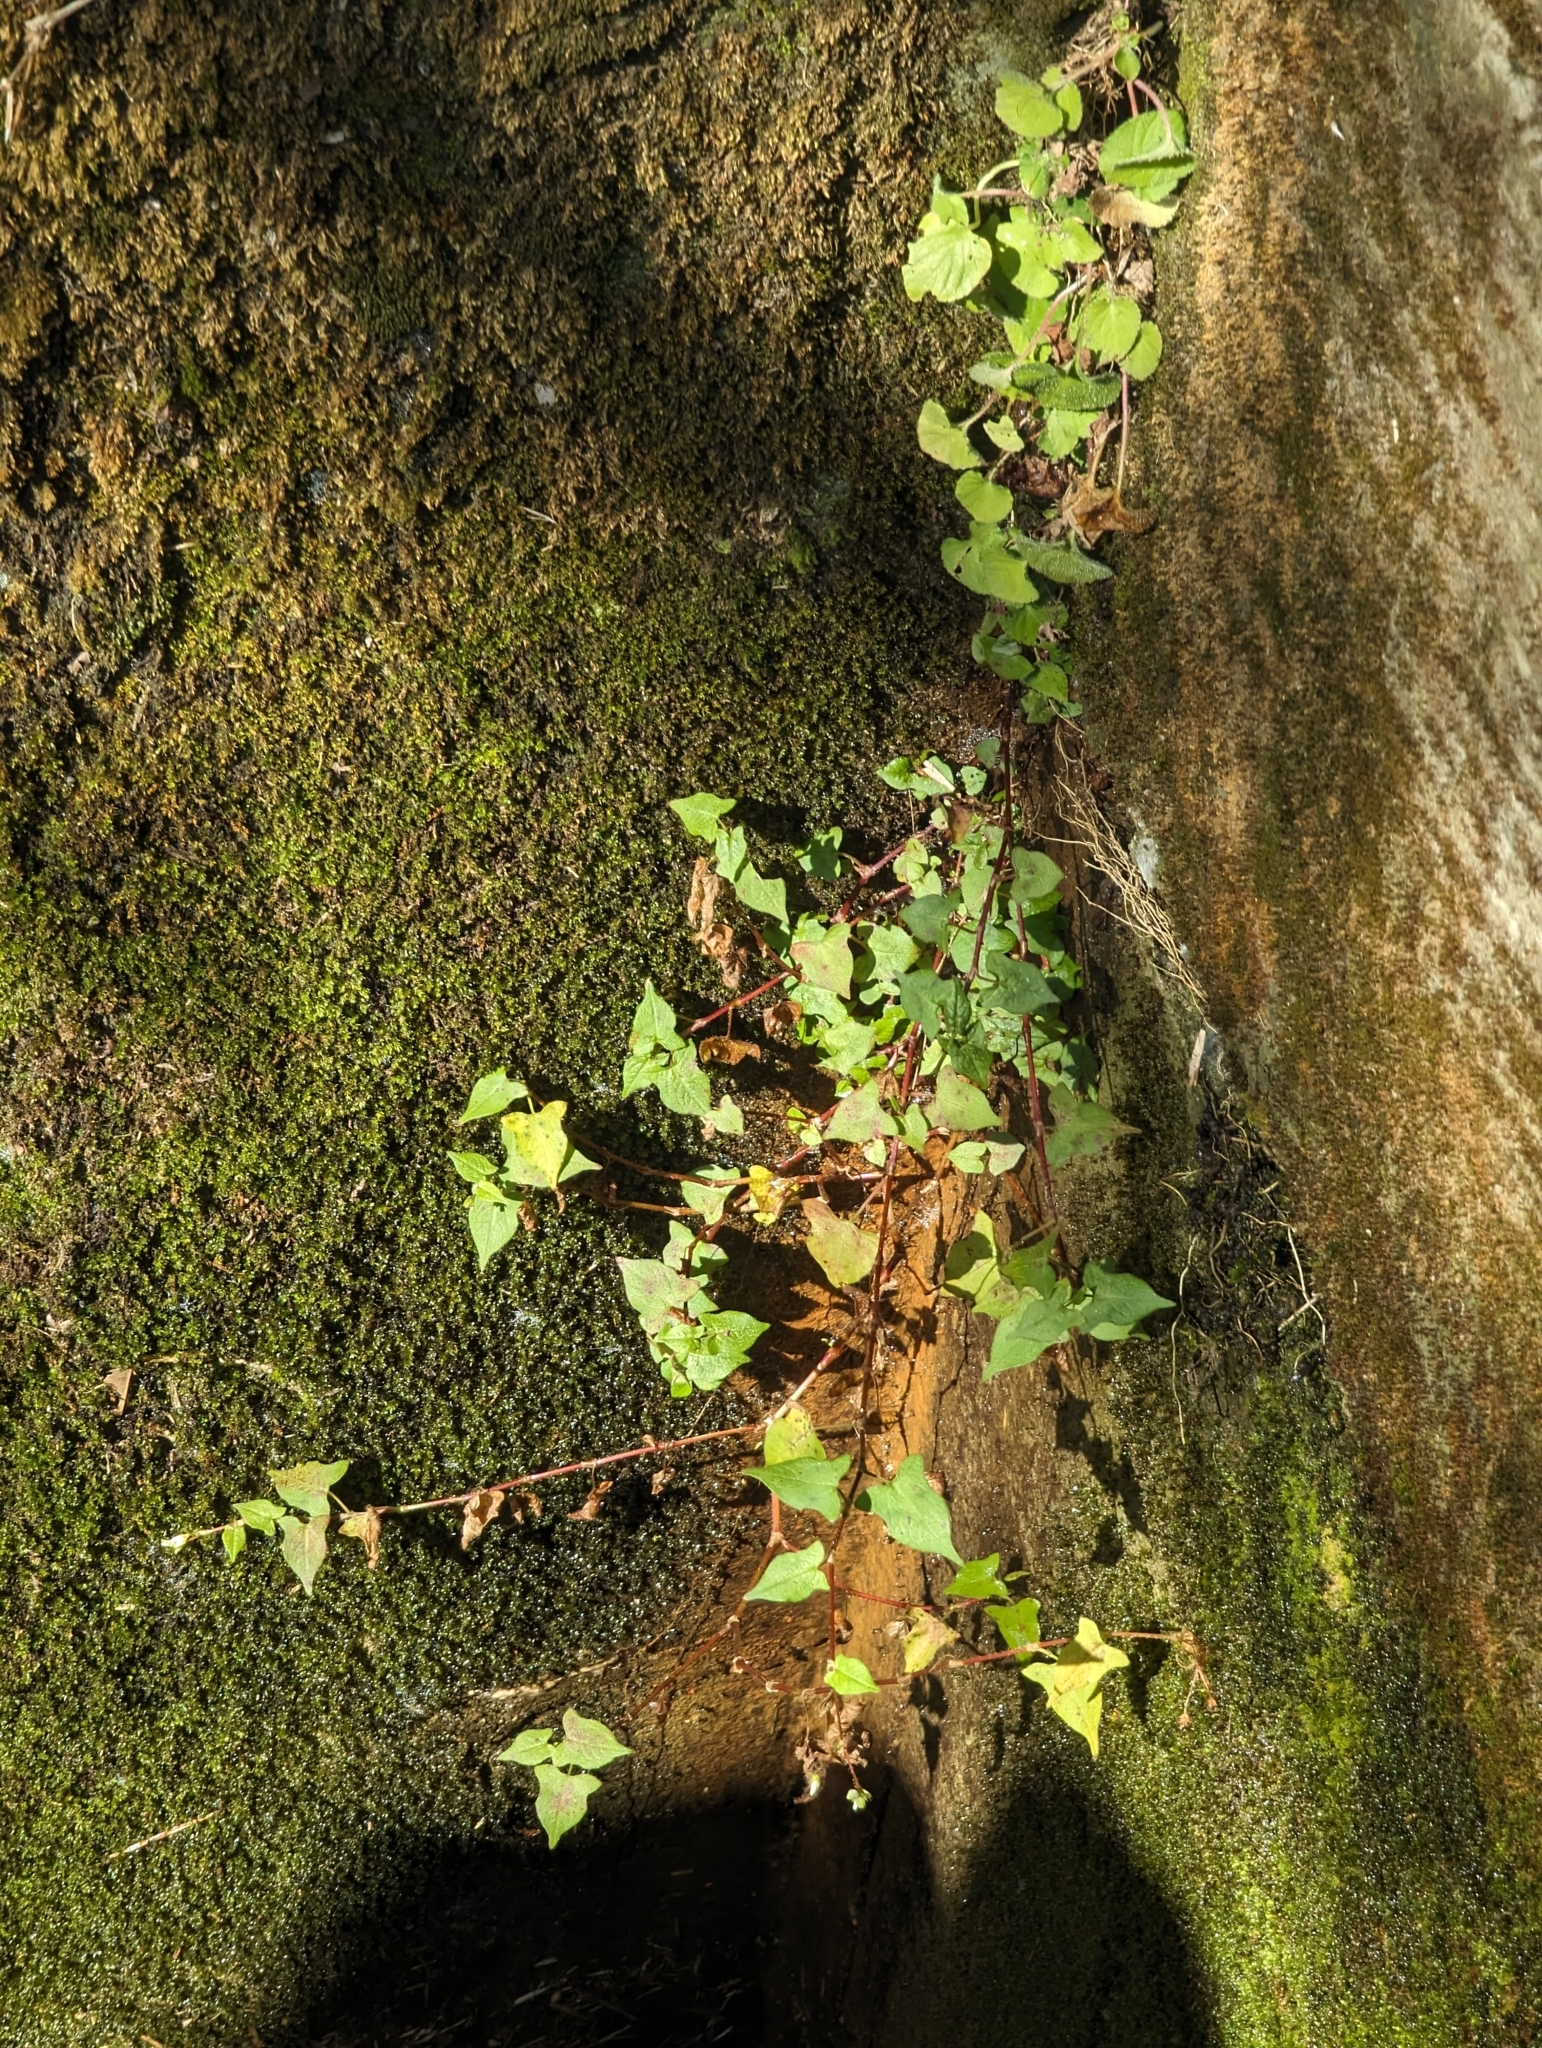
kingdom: Plantae
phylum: Tracheophyta
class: Magnoliopsida
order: Caryophyllales
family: Polygonaceae
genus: Persicaria
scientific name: Persicaria biconvexa
